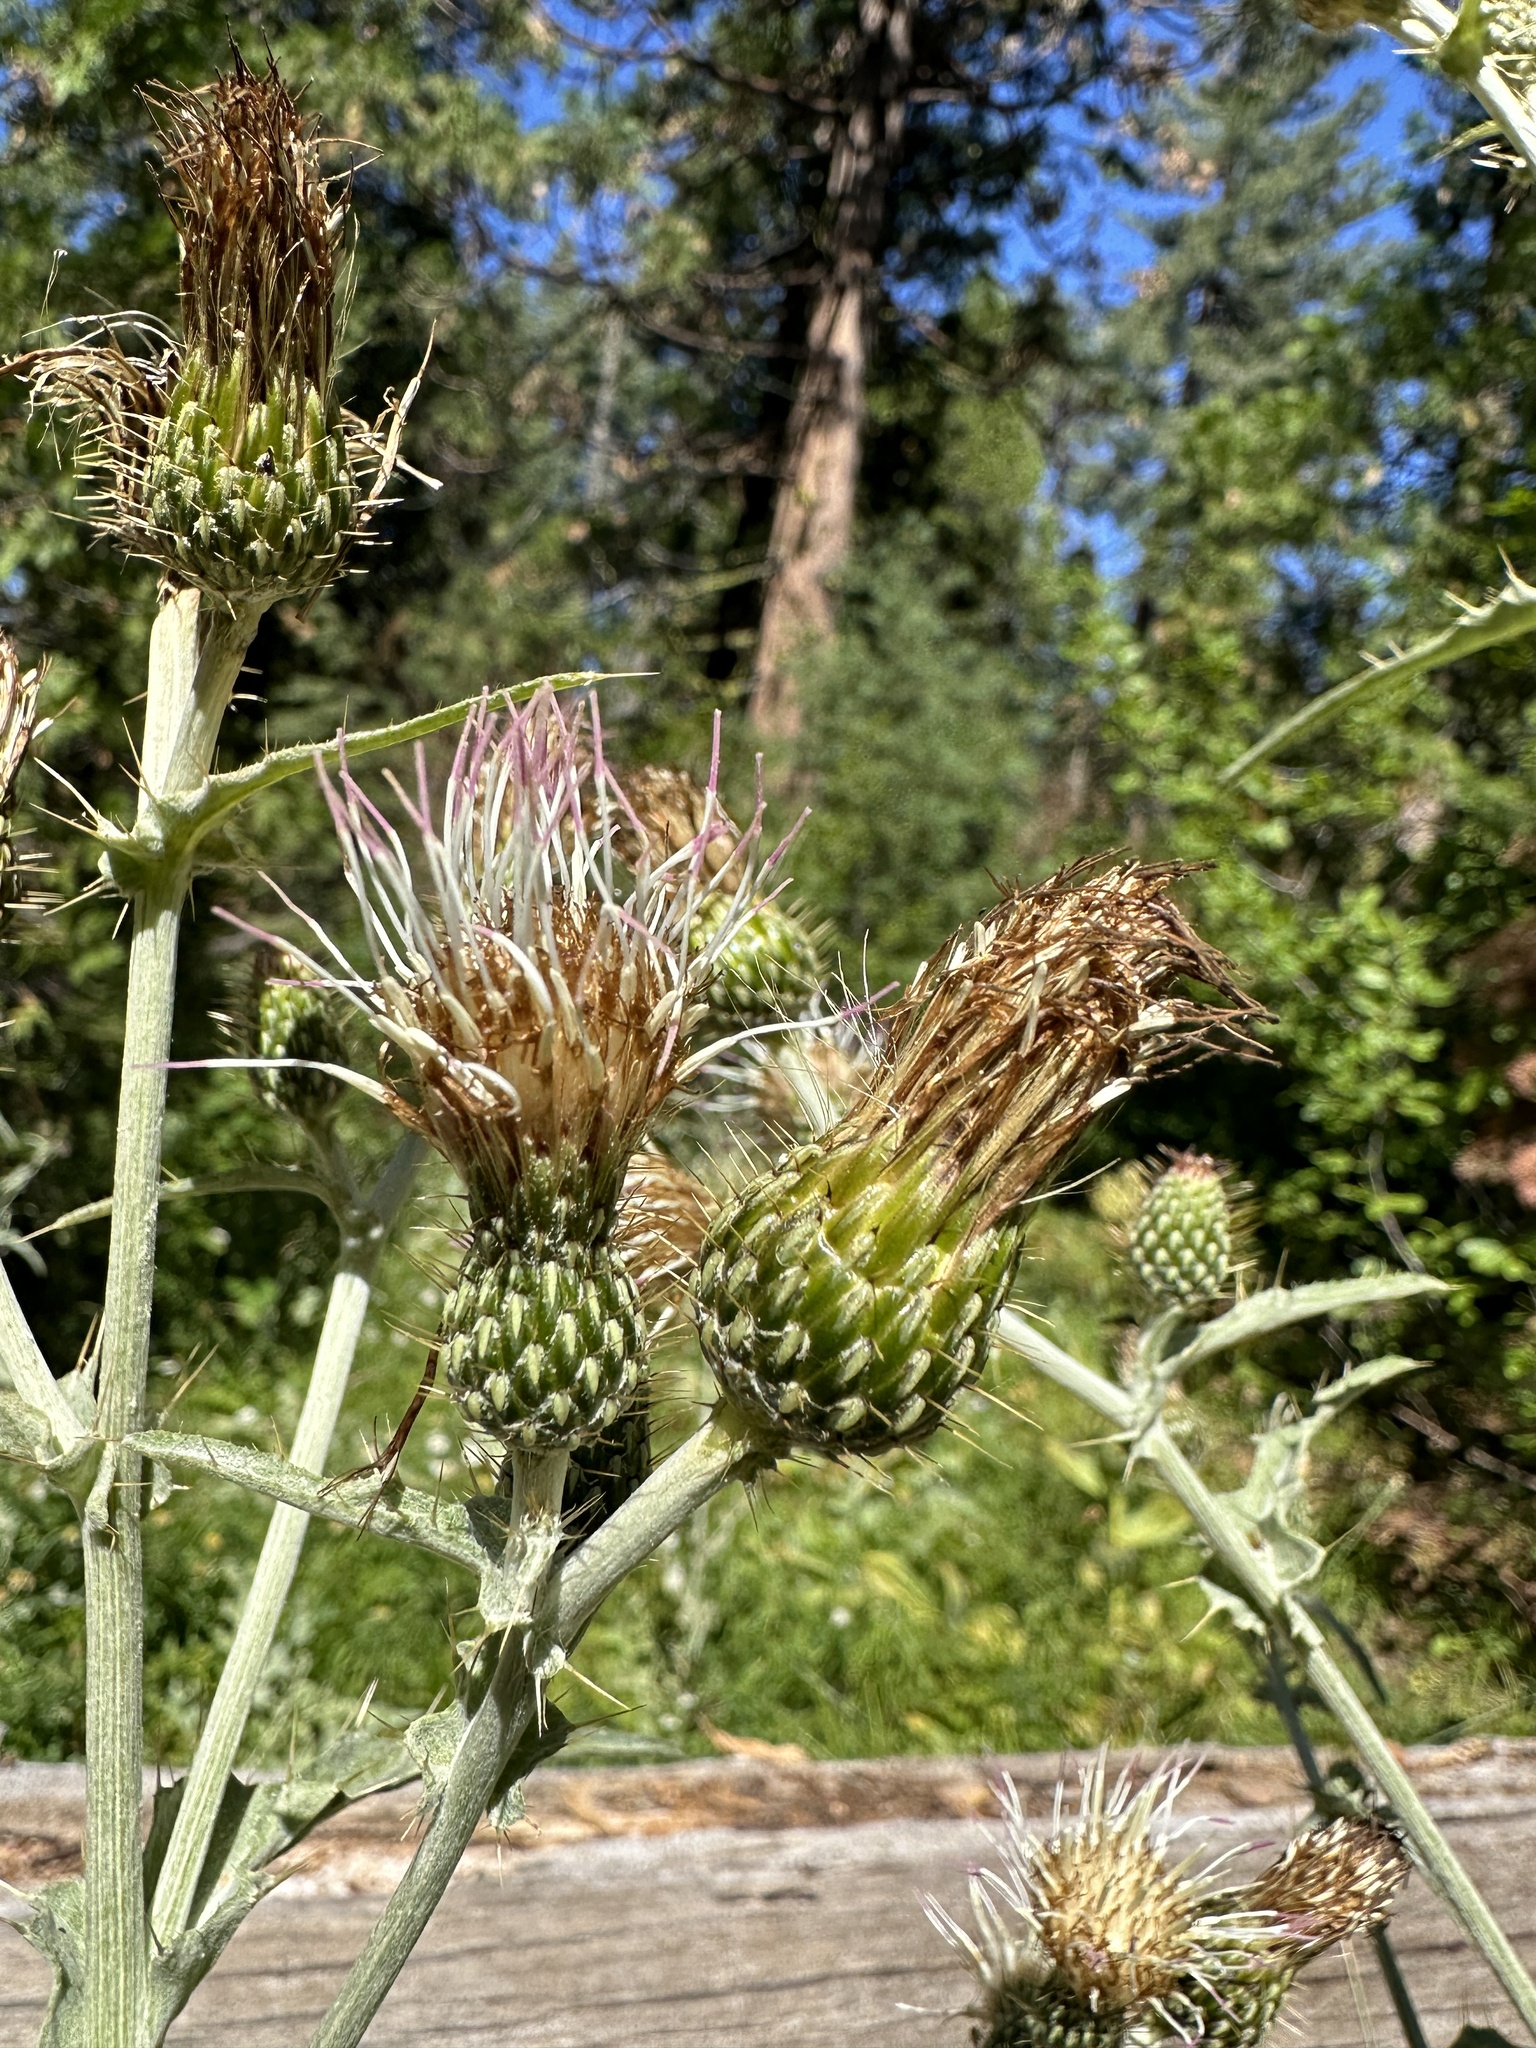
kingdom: Plantae
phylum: Tracheophyta
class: Magnoliopsida
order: Asterales
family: Asteraceae
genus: Cirsium
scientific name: Cirsium douglasii
